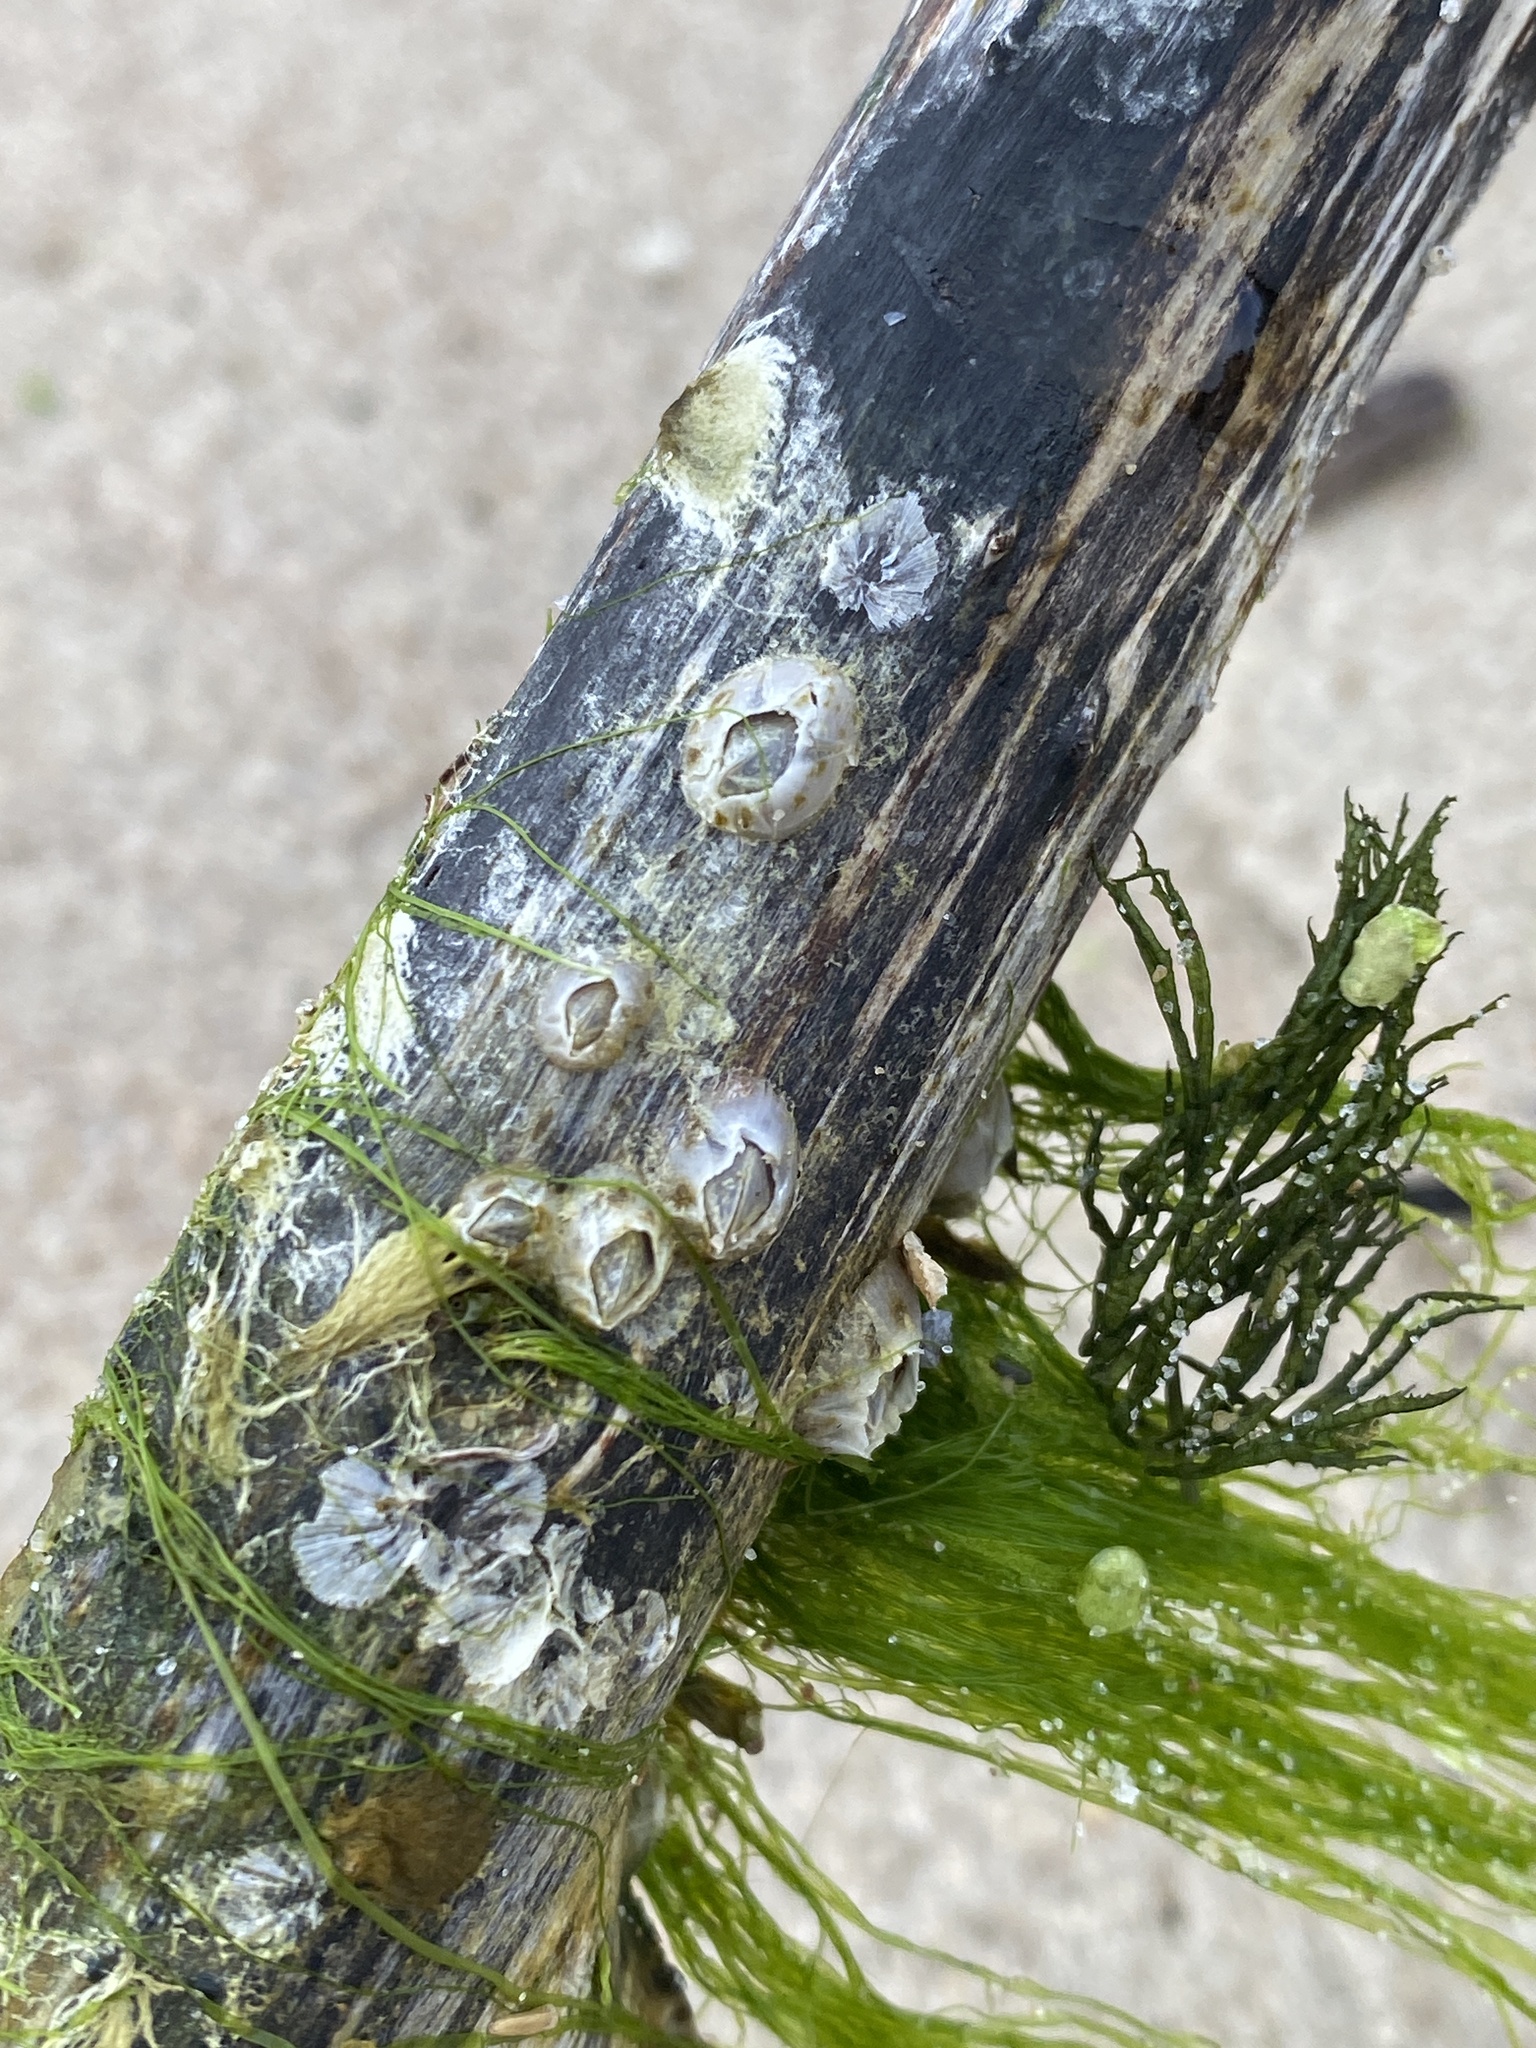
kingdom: Animalia
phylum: Arthropoda
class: Maxillopoda
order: Sessilia
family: Balanidae
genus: Amphibalanus
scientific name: Amphibalanus improvisus
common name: Bay barnacle
